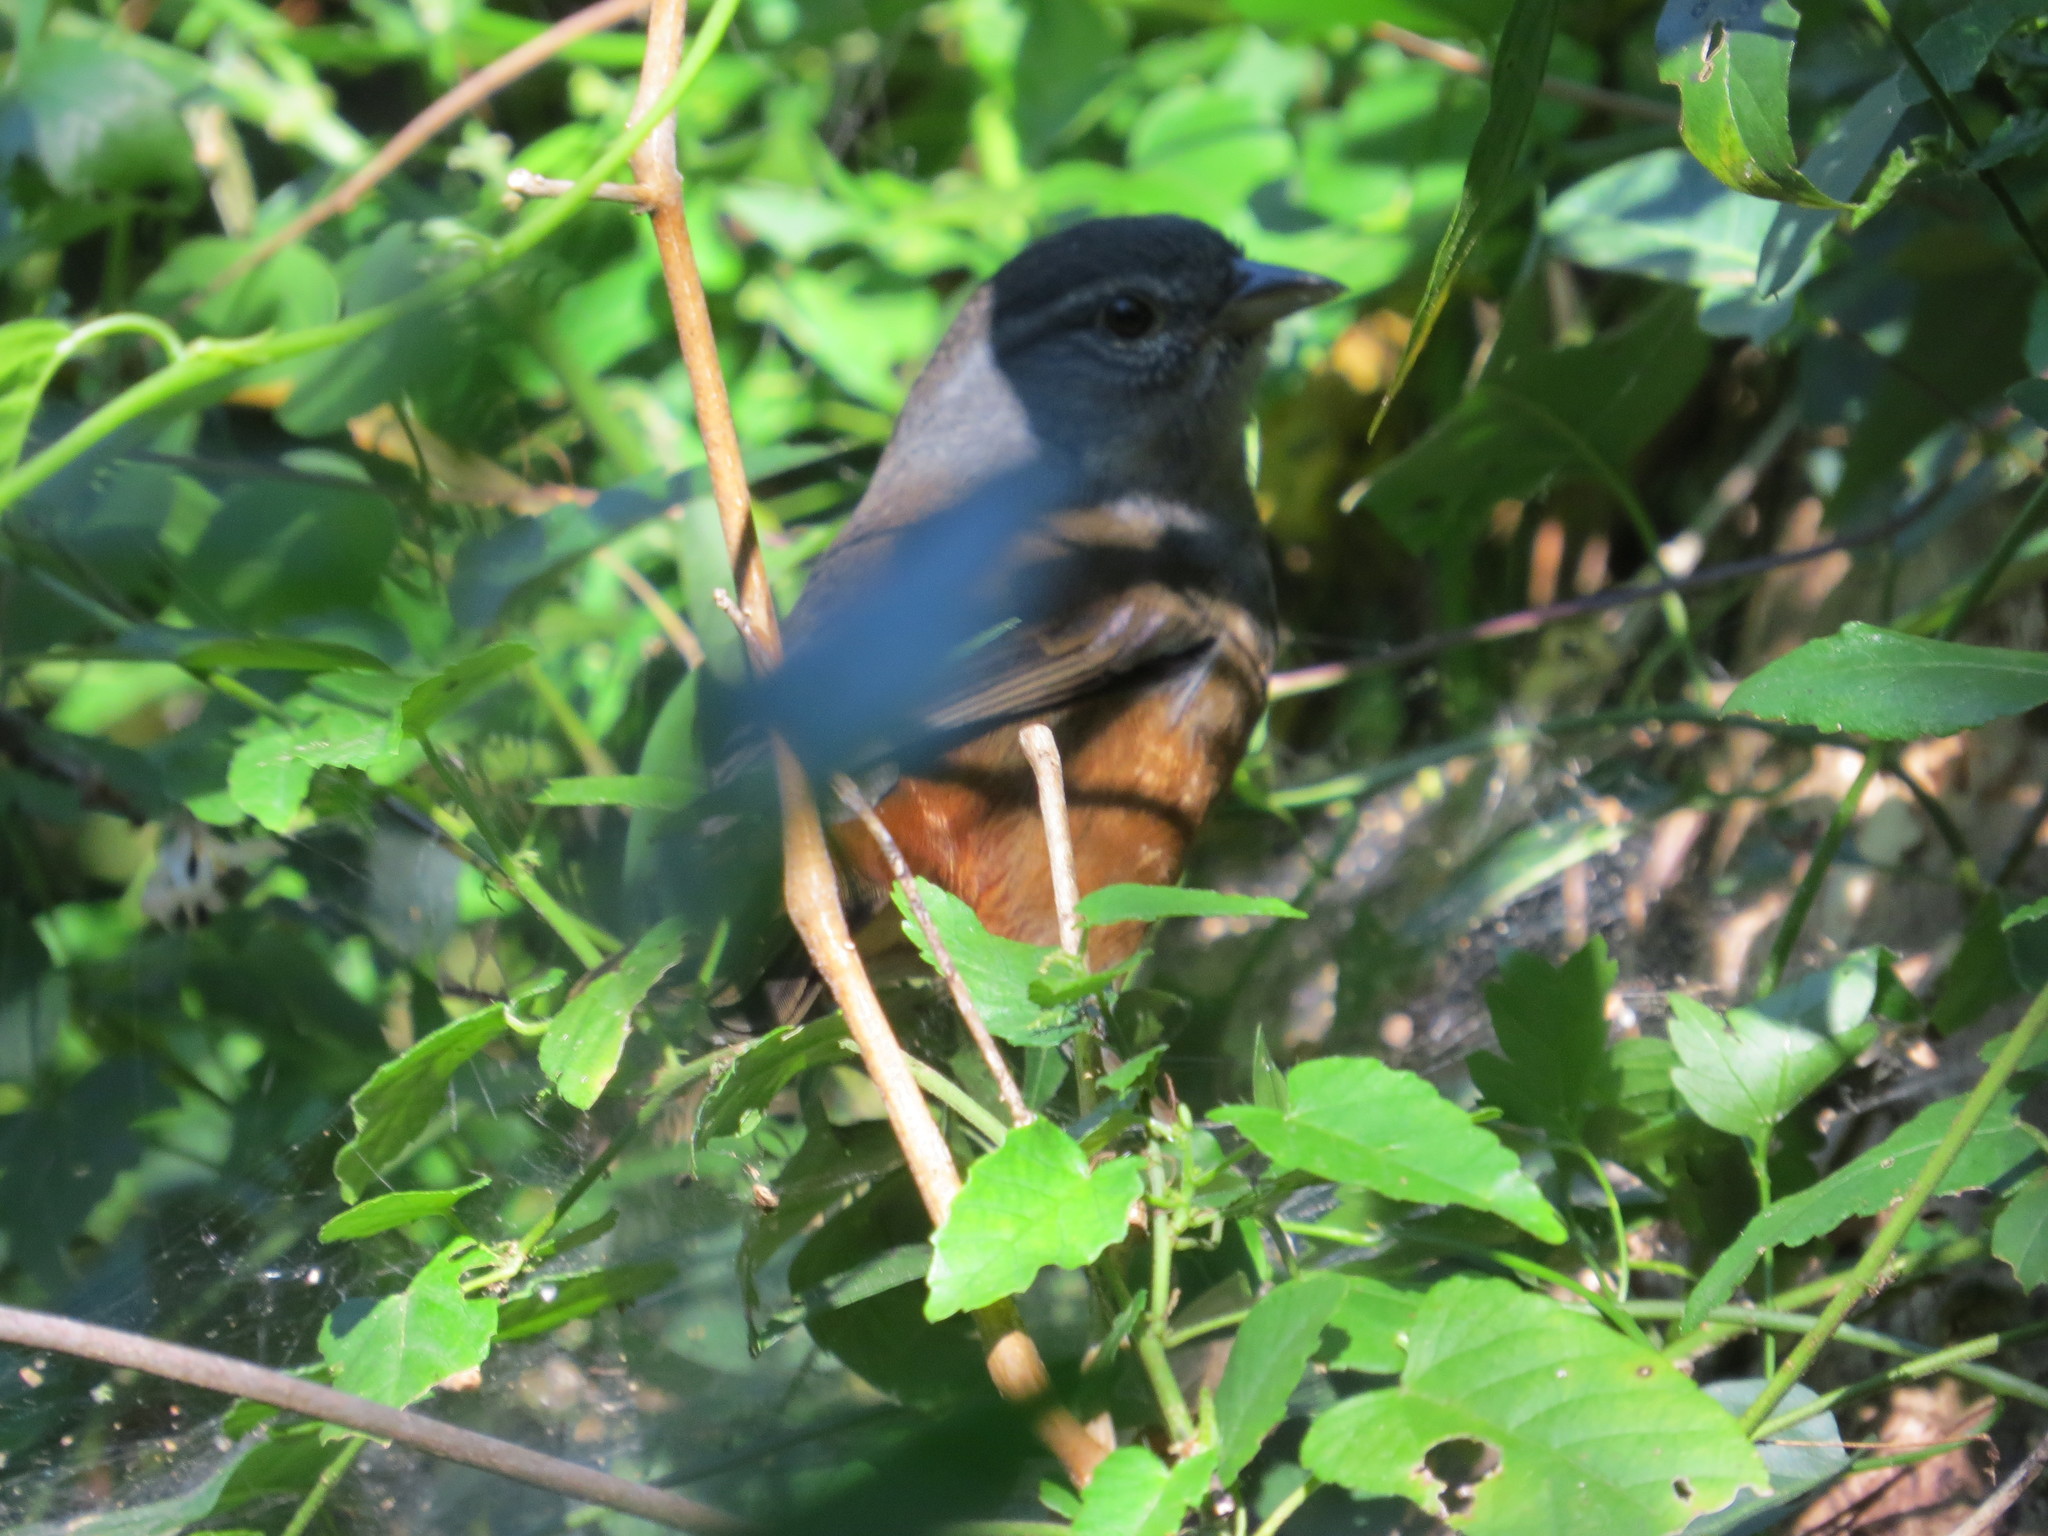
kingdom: Animalia
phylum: Chordata
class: Aves
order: Passeriformes
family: Thraupidae
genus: Microspingus
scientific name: Microspingus cabanisi
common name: Gray-throated warbling-finch
